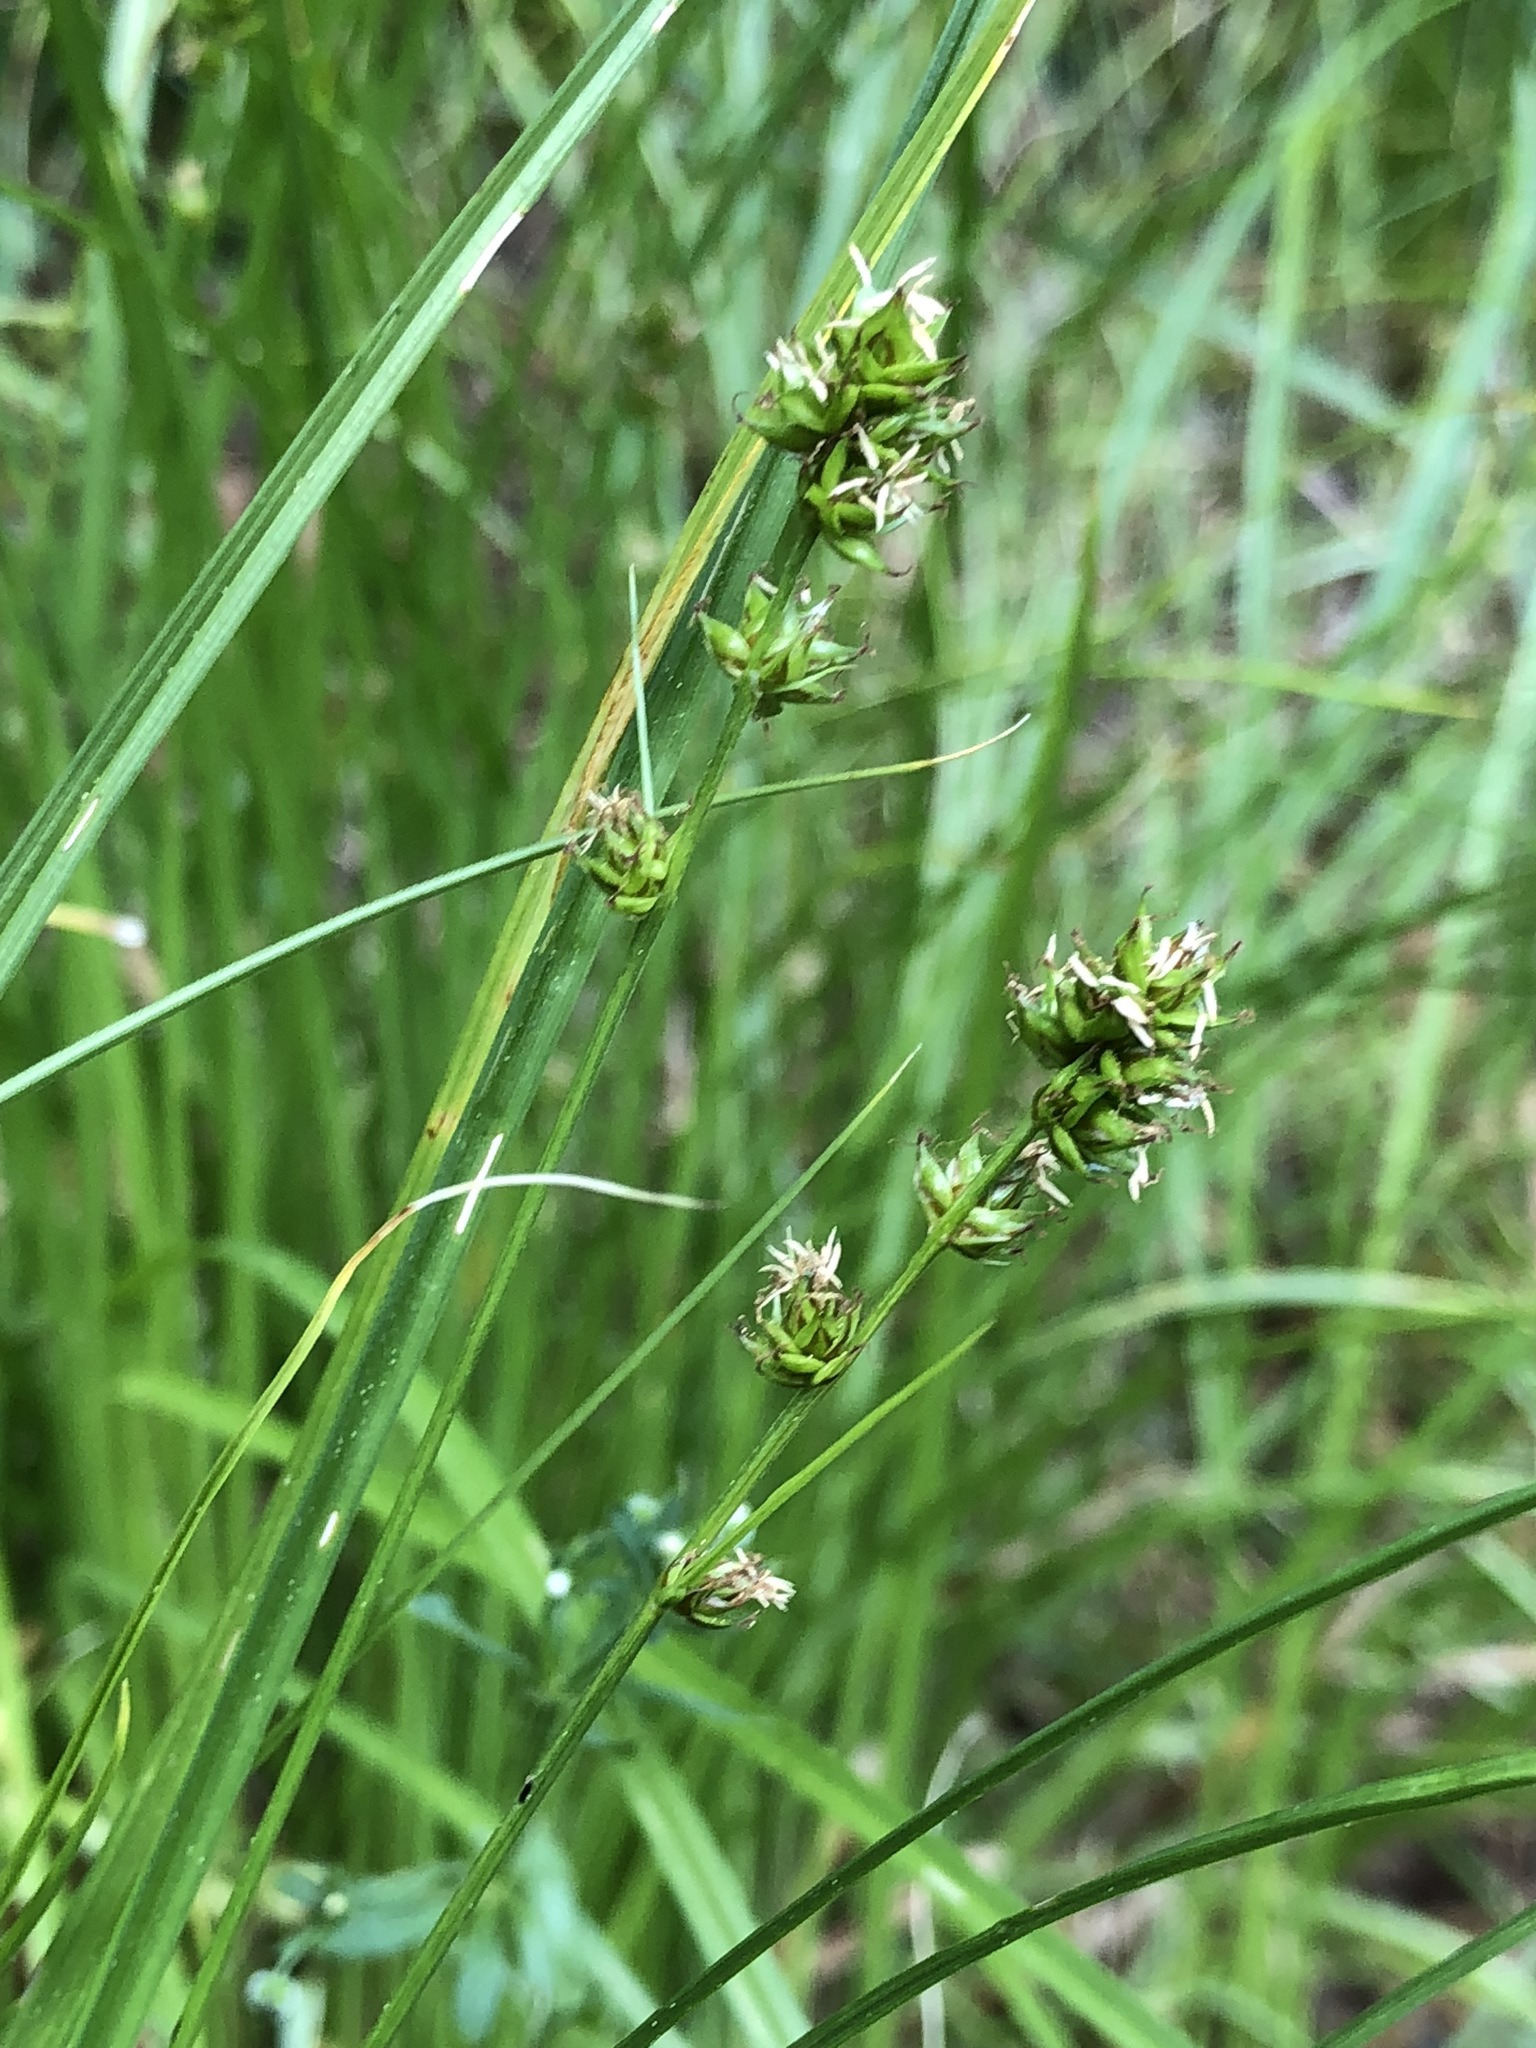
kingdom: Plantae
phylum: Tracheophyta
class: Liliopsida
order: Poales
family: Cyperaceae
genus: Carex
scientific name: Carex muricata
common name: Rough sedge
